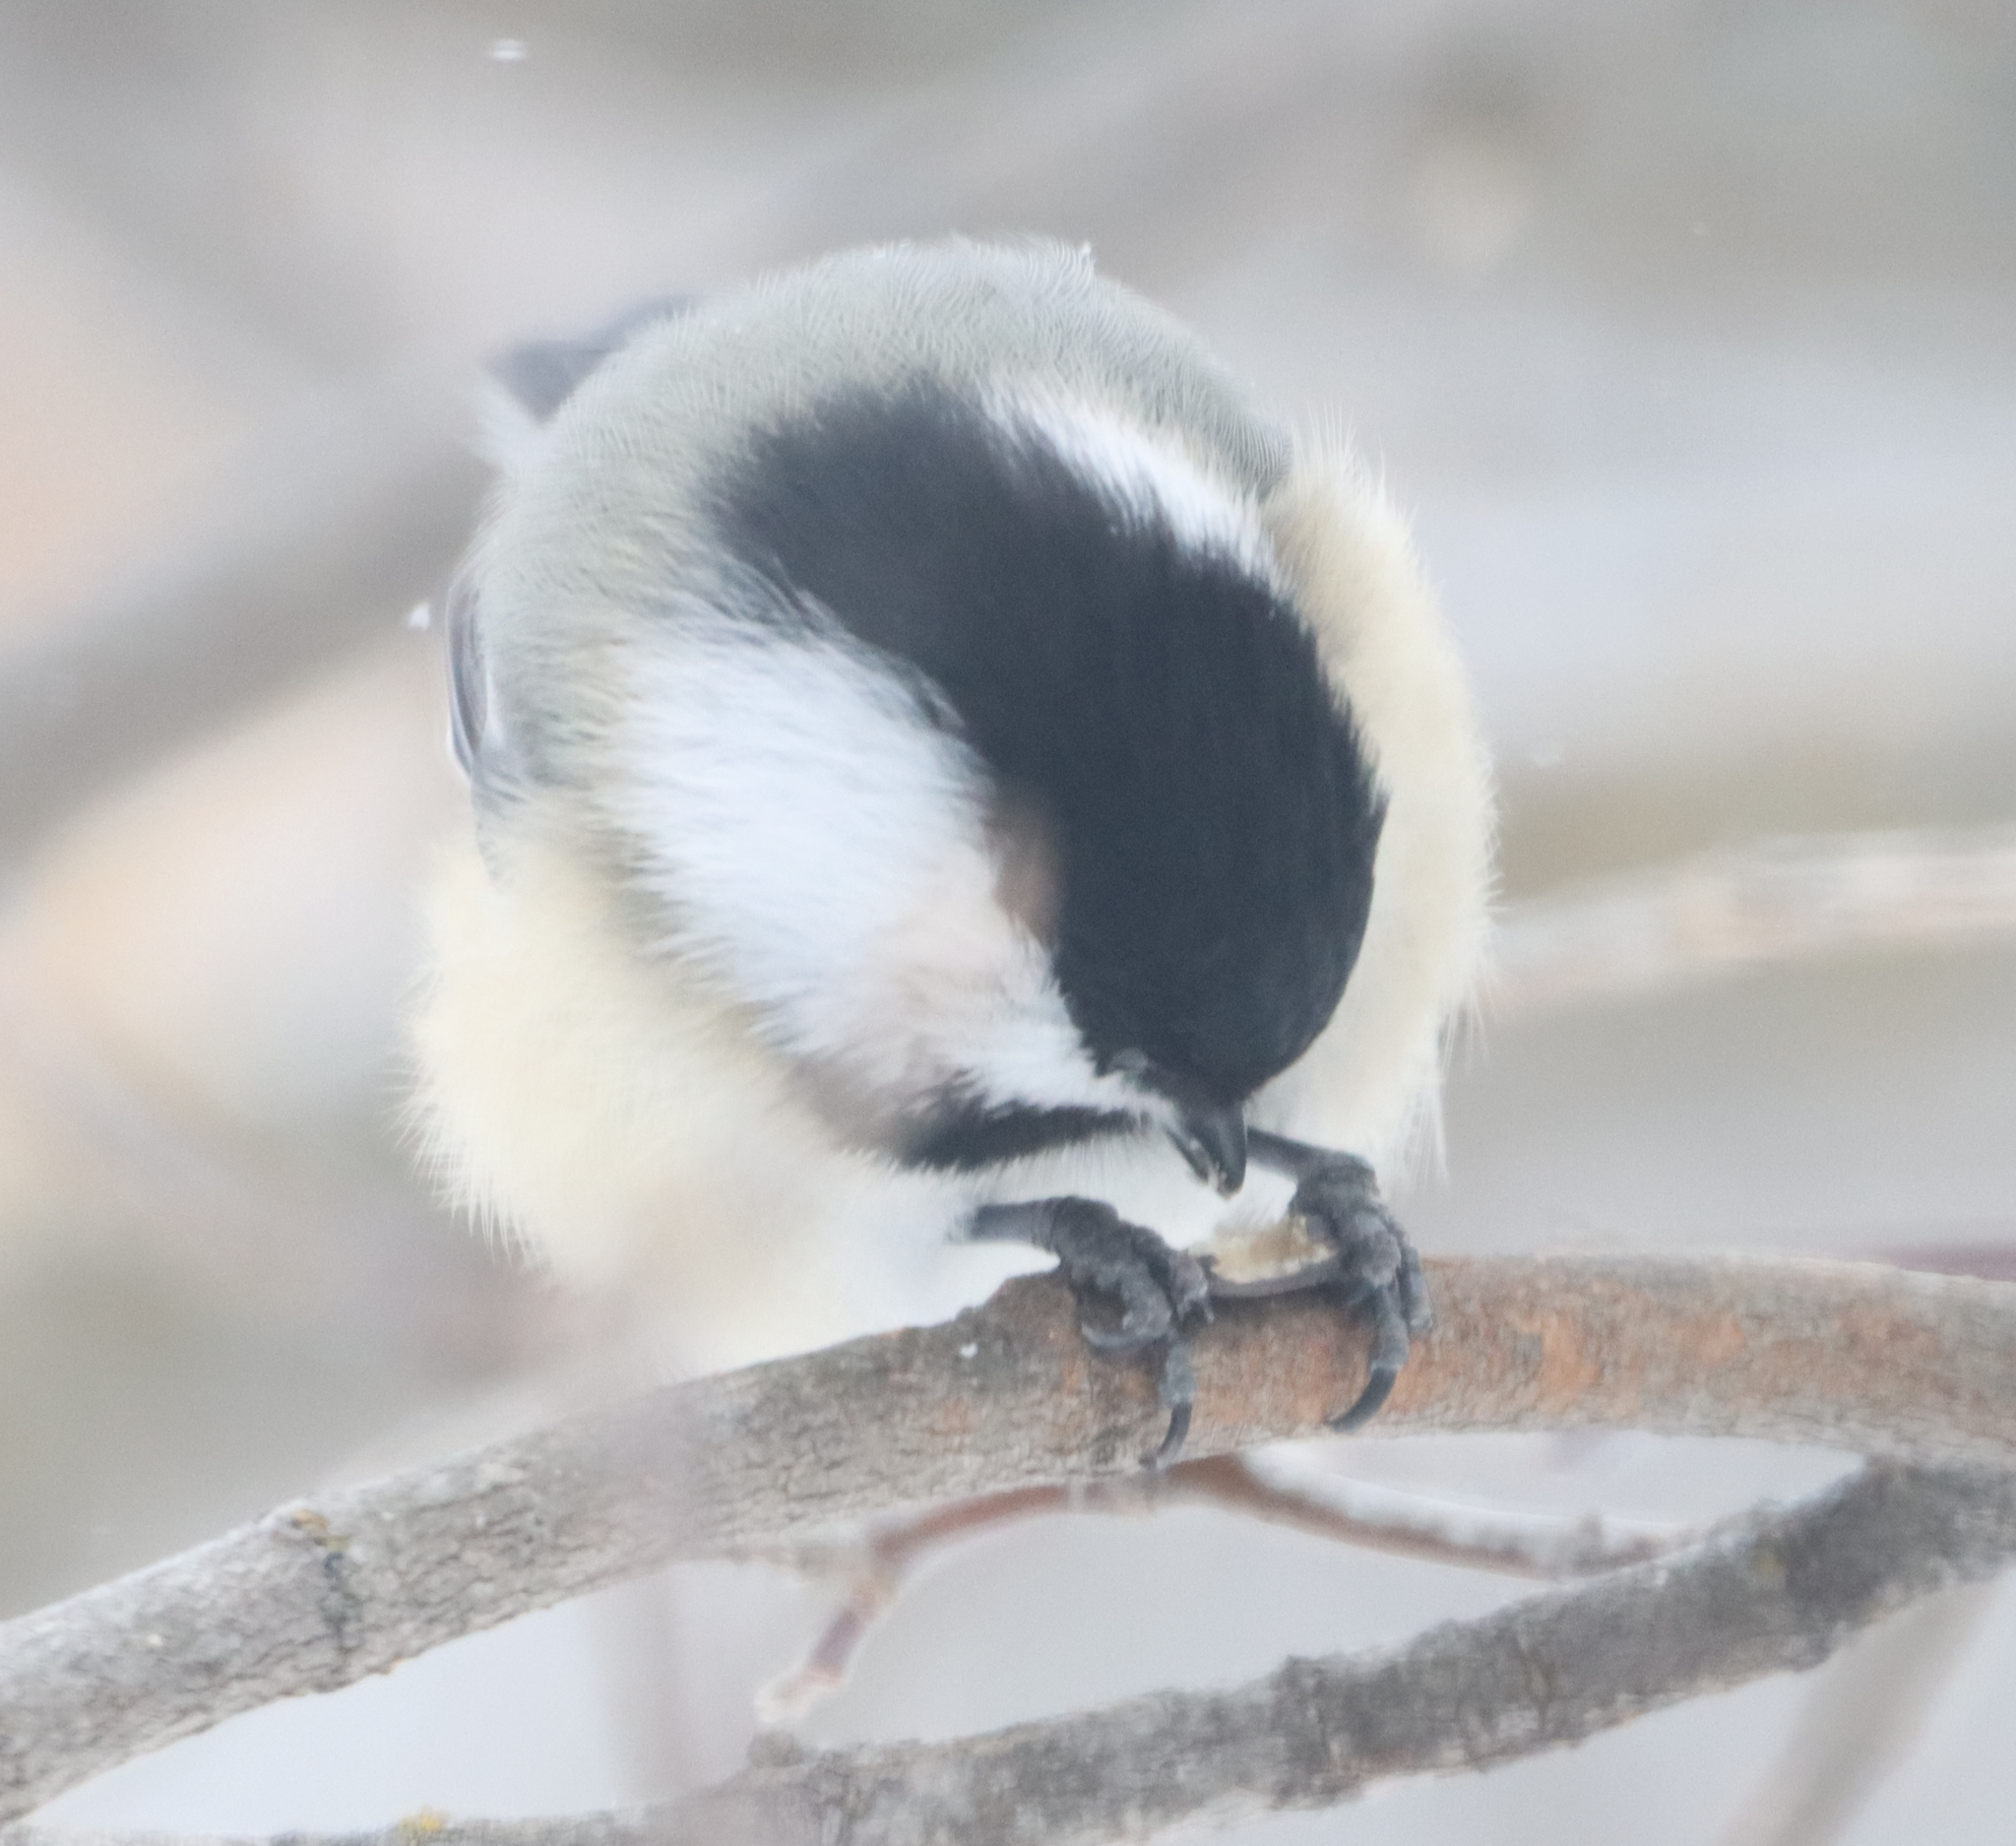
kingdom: Animalia
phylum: Chordata
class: Aves
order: Passeriformes
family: Paridae
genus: Poecile
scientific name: Poecile atricapillus
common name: Black-capped chickadee
